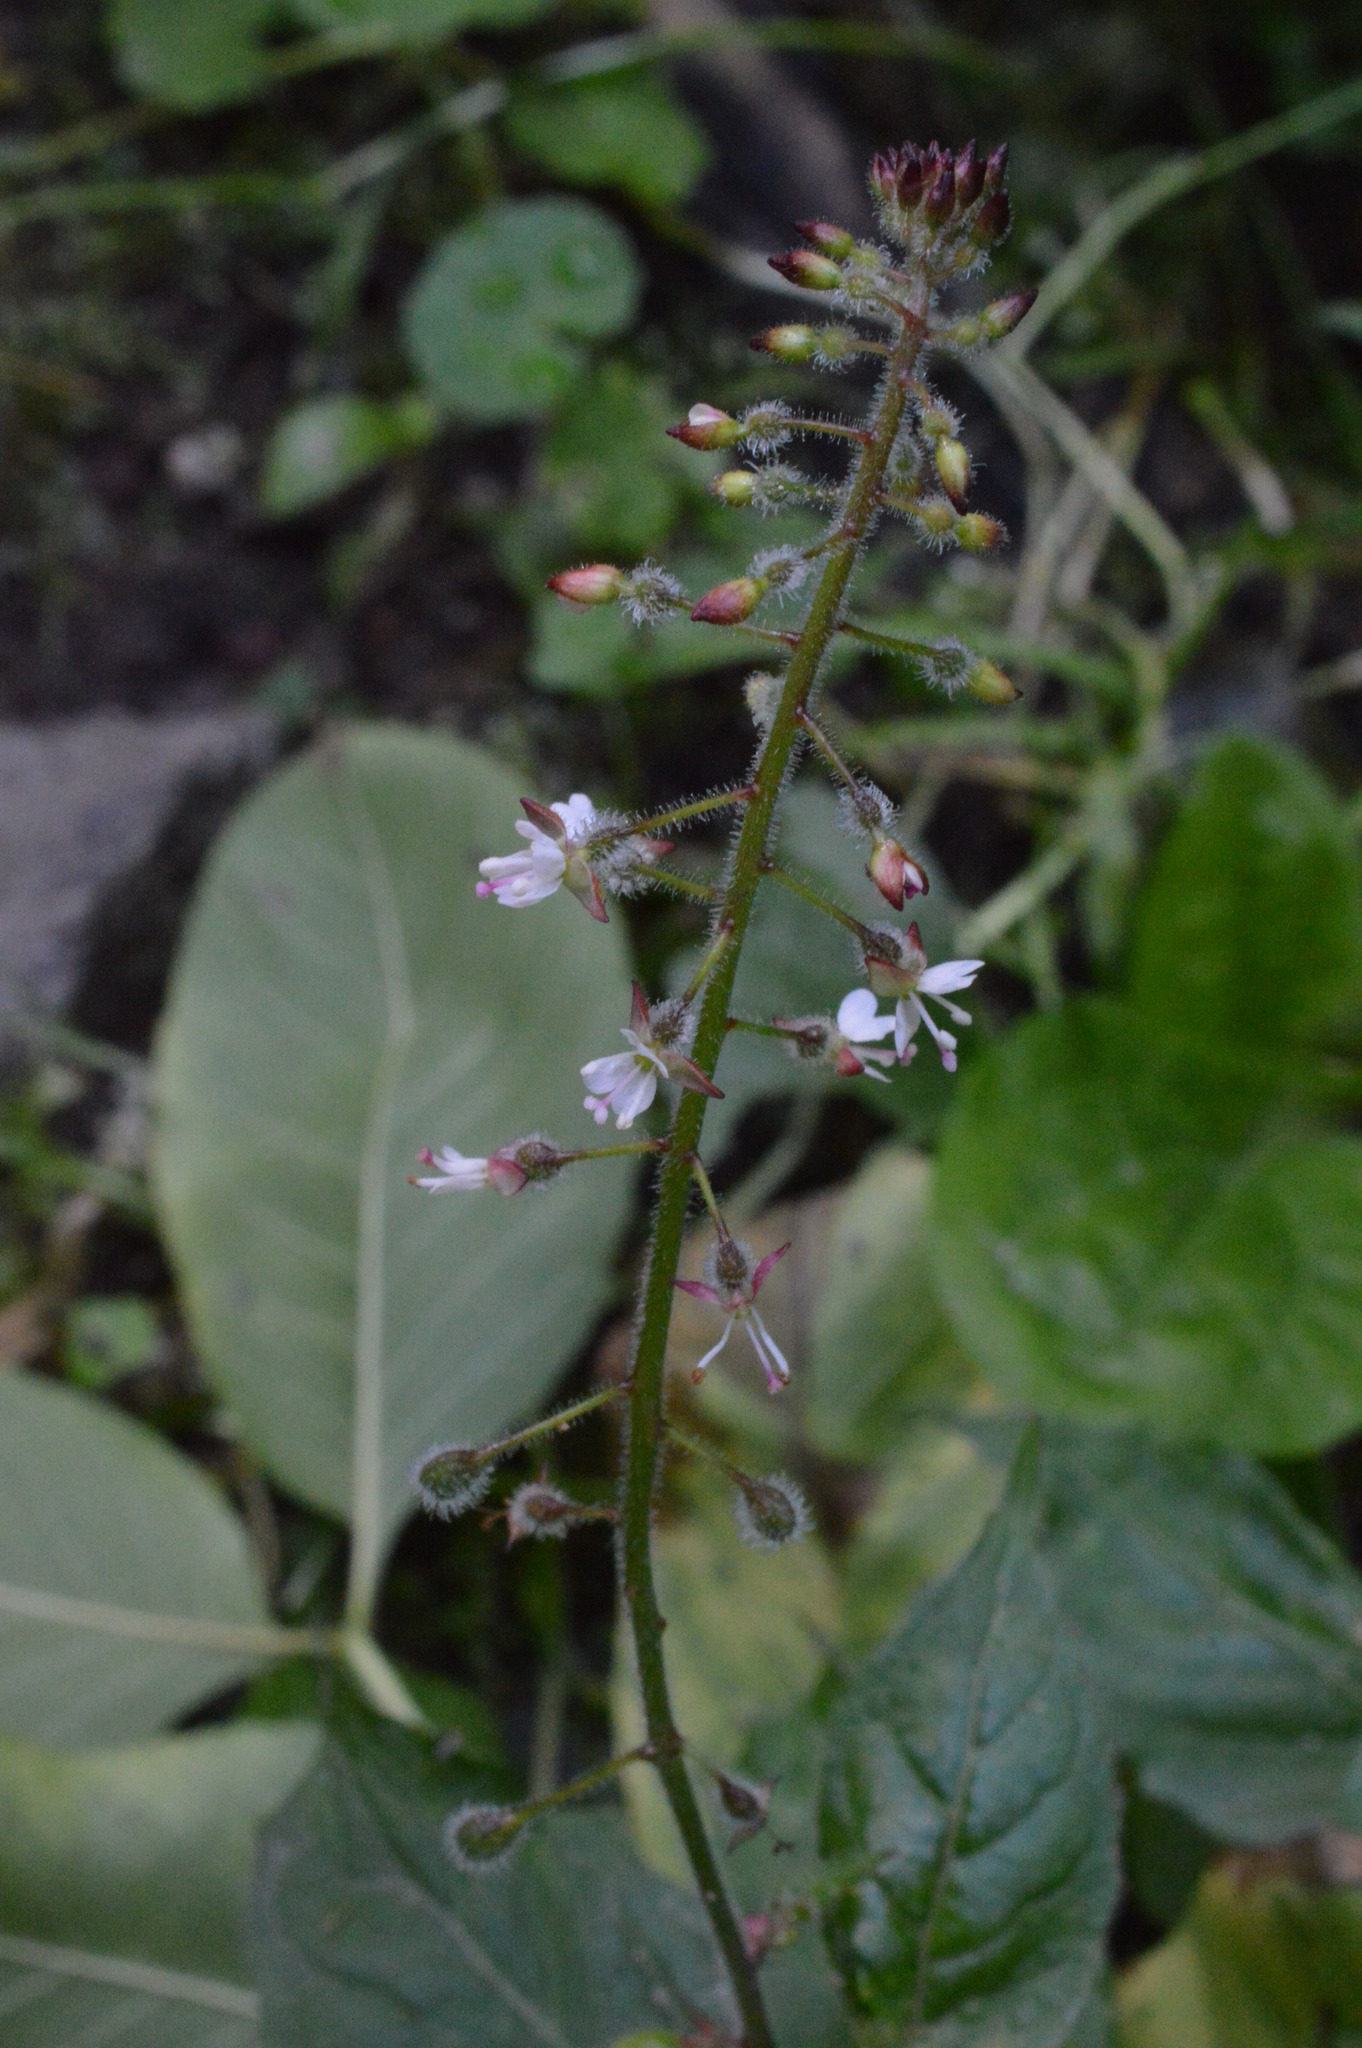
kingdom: Plantae
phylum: Tracheophyta
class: Magnoliopsida
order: Myrtales
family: Onagraceae
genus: Circaea
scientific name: Circaea lutetiana
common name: Enchanter's-nightshade
